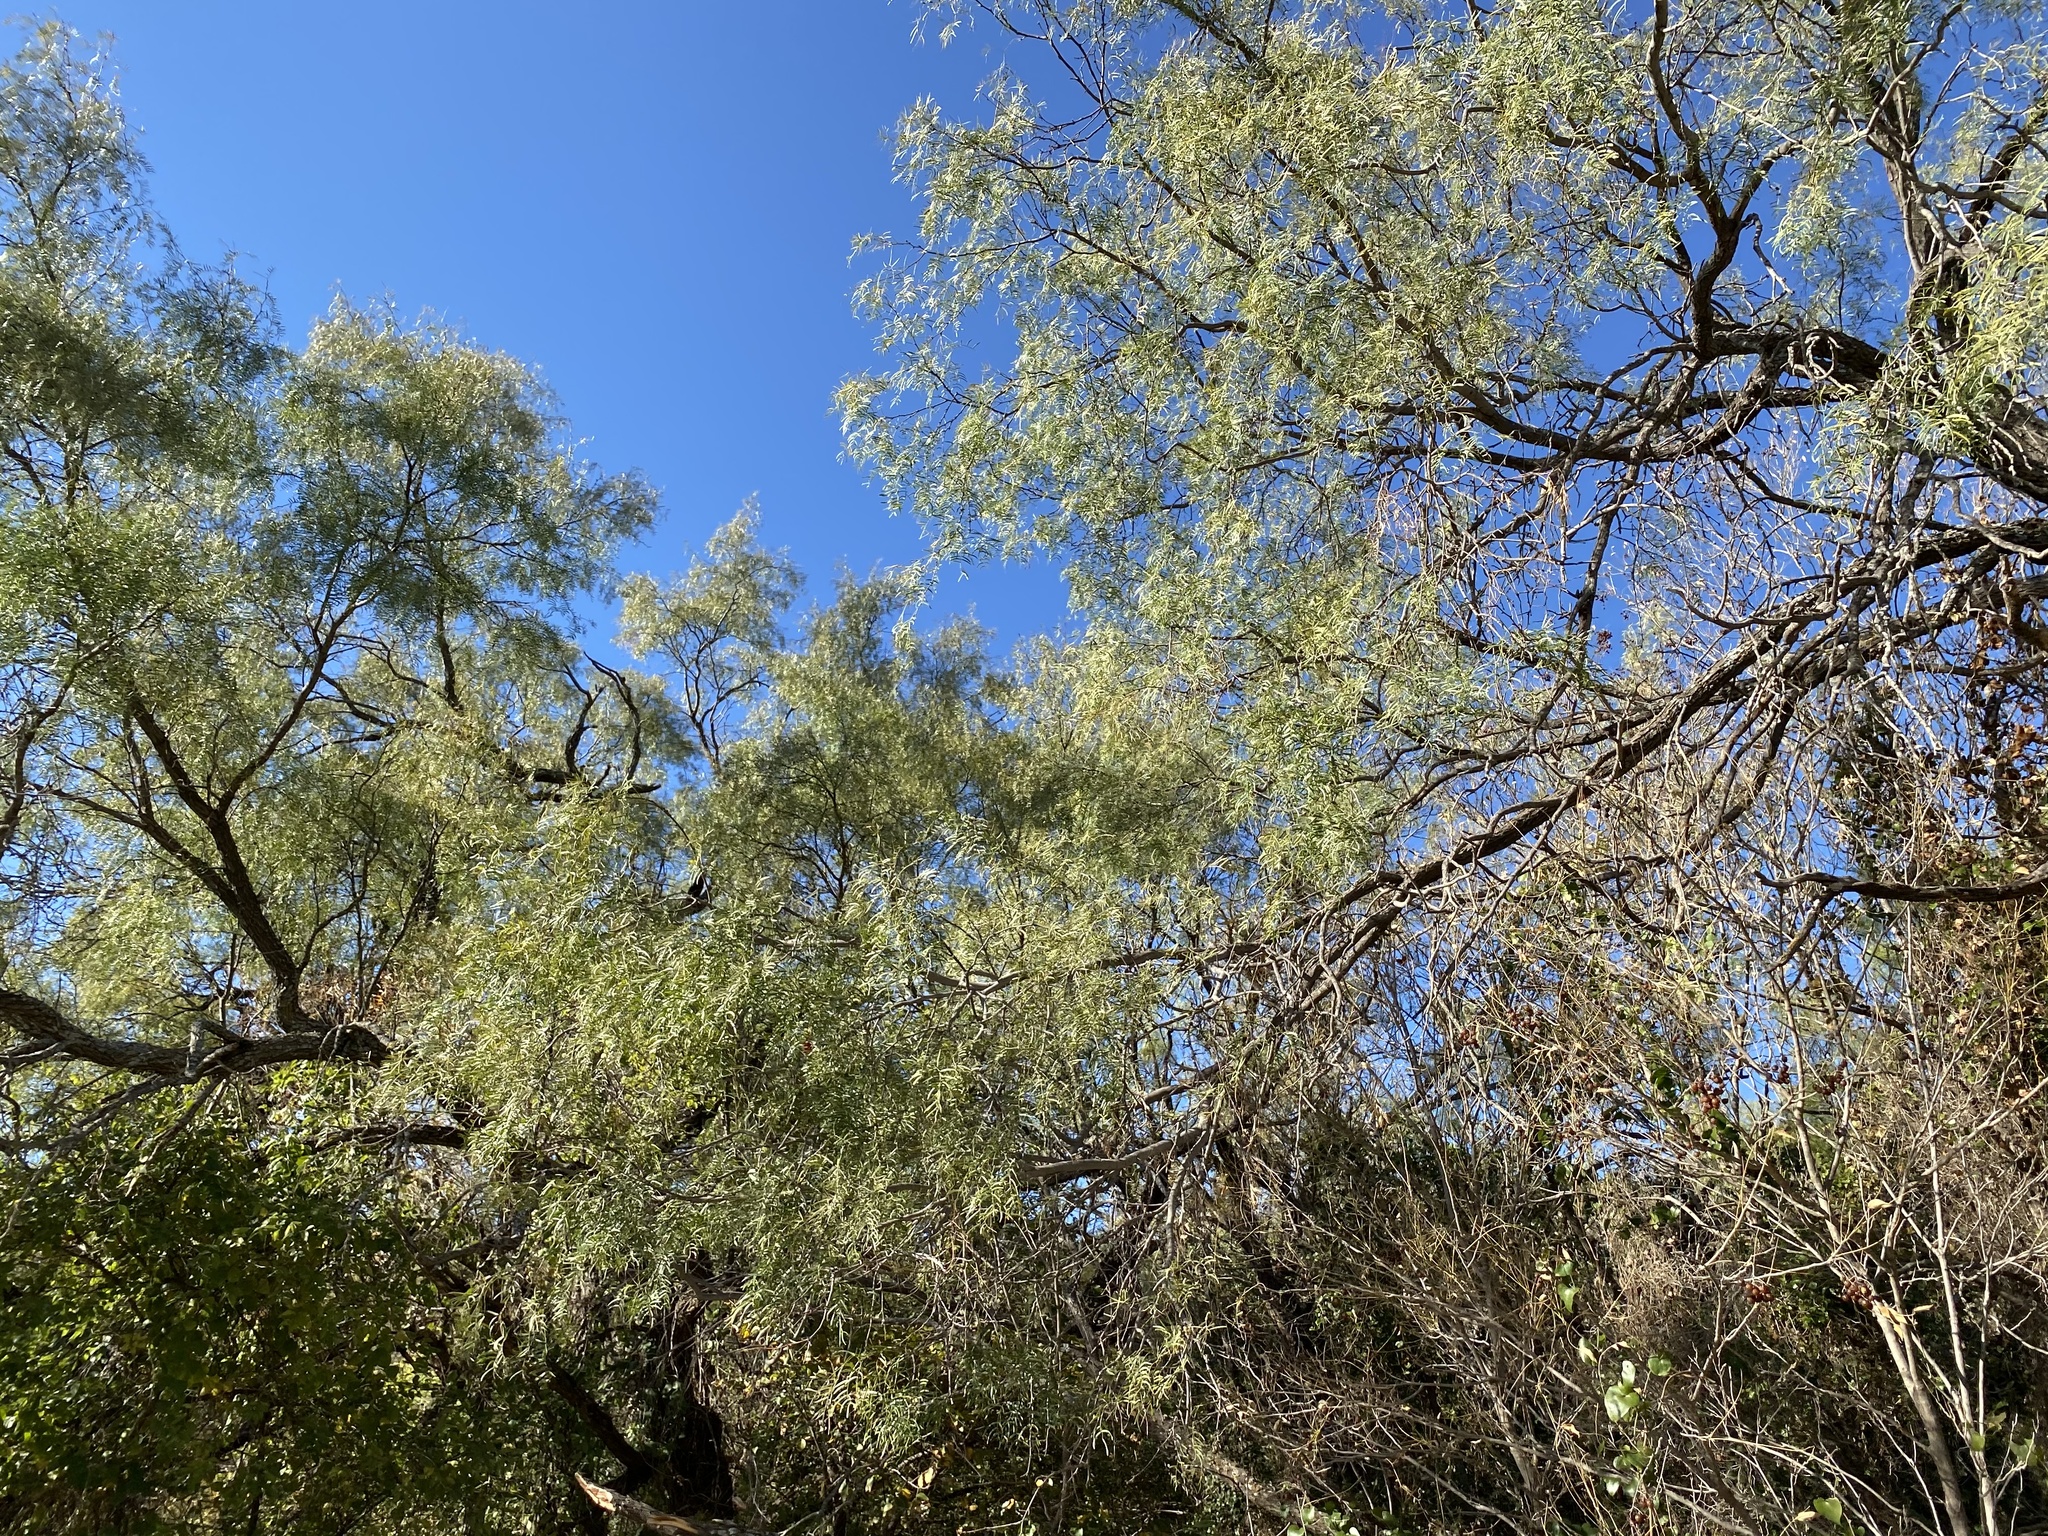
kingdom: Plantae
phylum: Tracheophyta
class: Magnoliopsida
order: Fabales
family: Fabaceae
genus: Prosopis
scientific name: Prosopis glandulosa
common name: Honey mesquite
